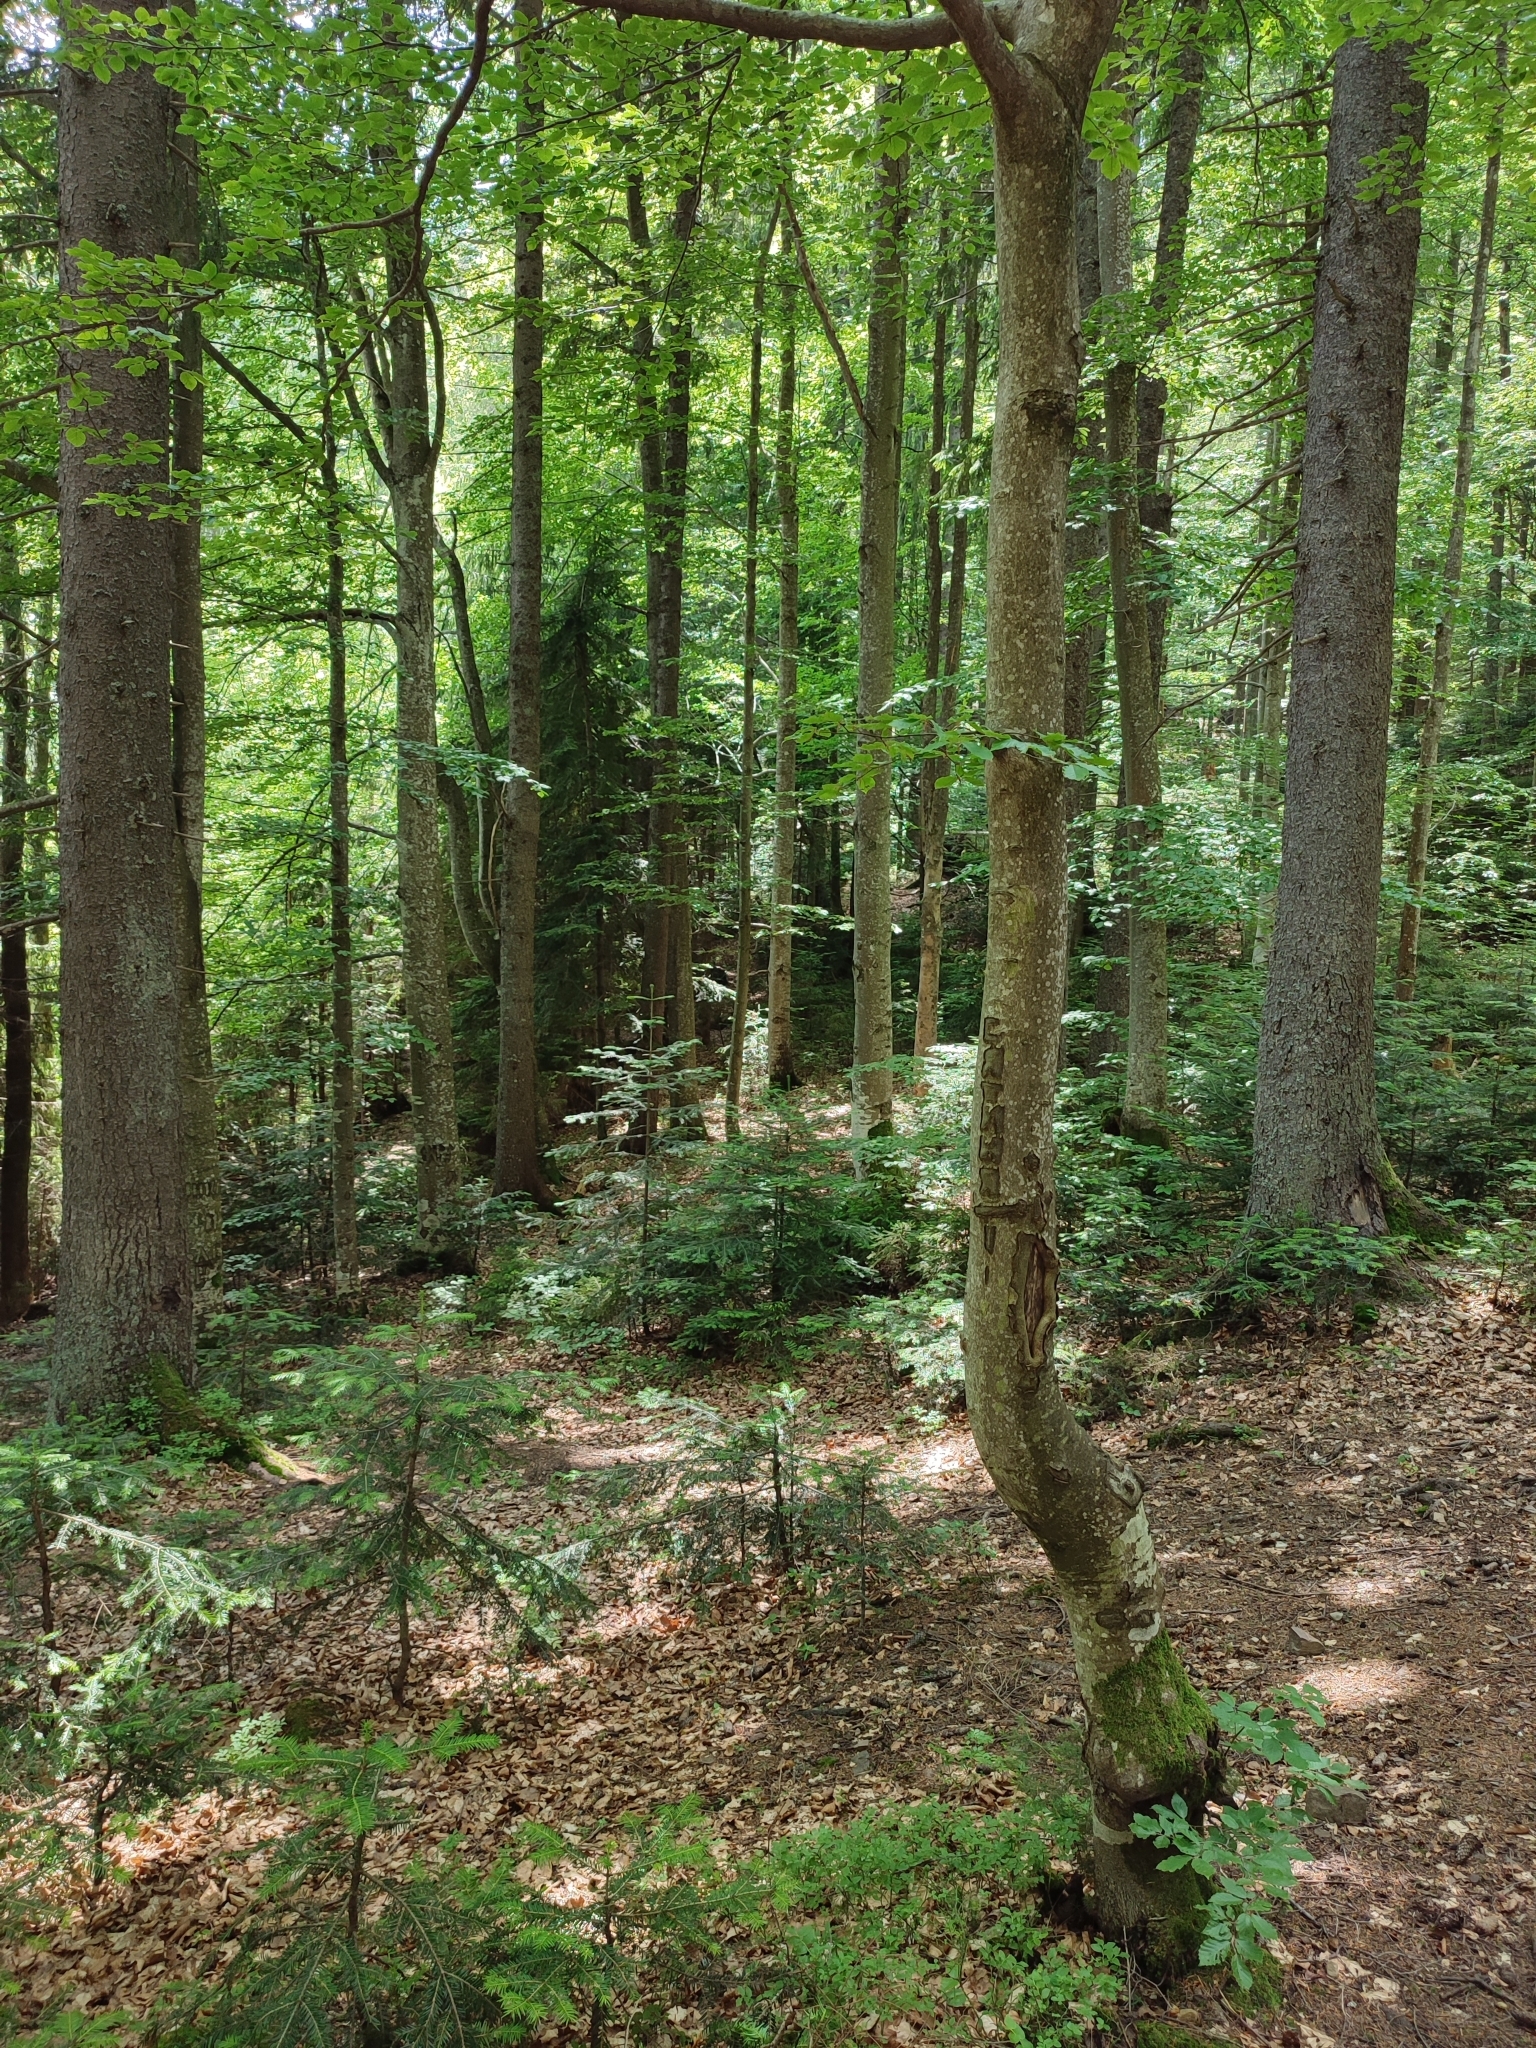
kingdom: Plantae
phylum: Tracheophyta
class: Magnoliopsida
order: Fagales
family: Fagaceae
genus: Fagus
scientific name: Fagus sylvatica
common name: Beech
